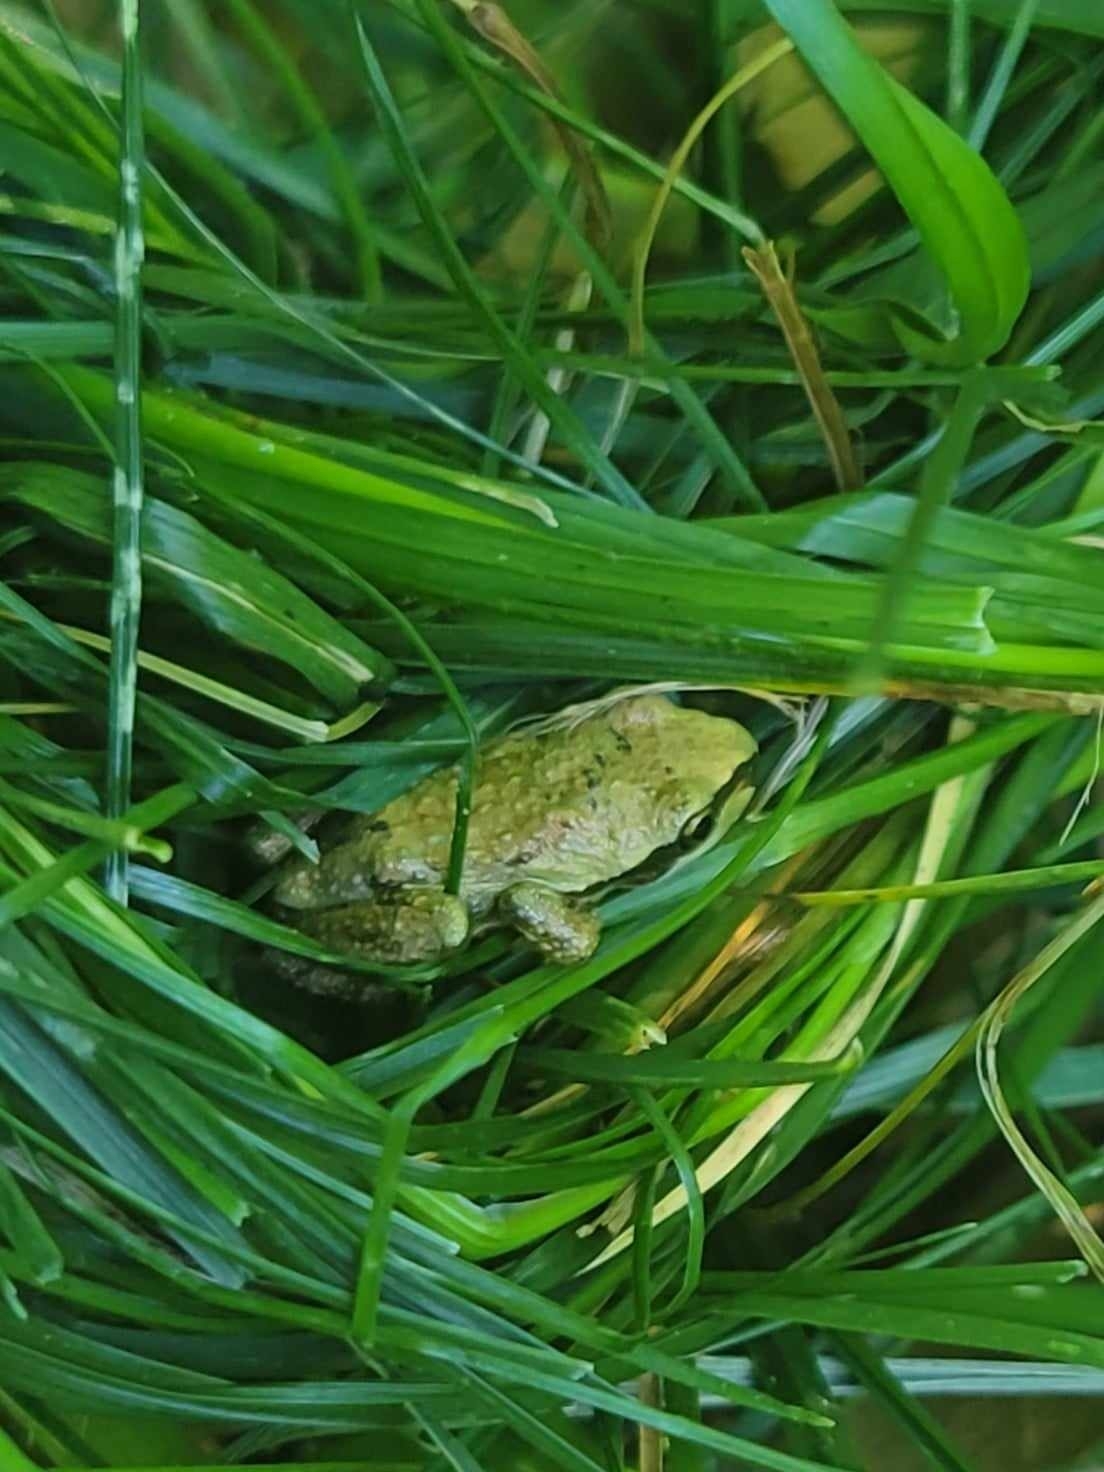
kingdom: Animalia
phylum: Chordata
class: Amphibia
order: Anura
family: Hylidae
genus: Pseudacris
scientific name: Pseudacris regilla
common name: Pacific chorus frog
